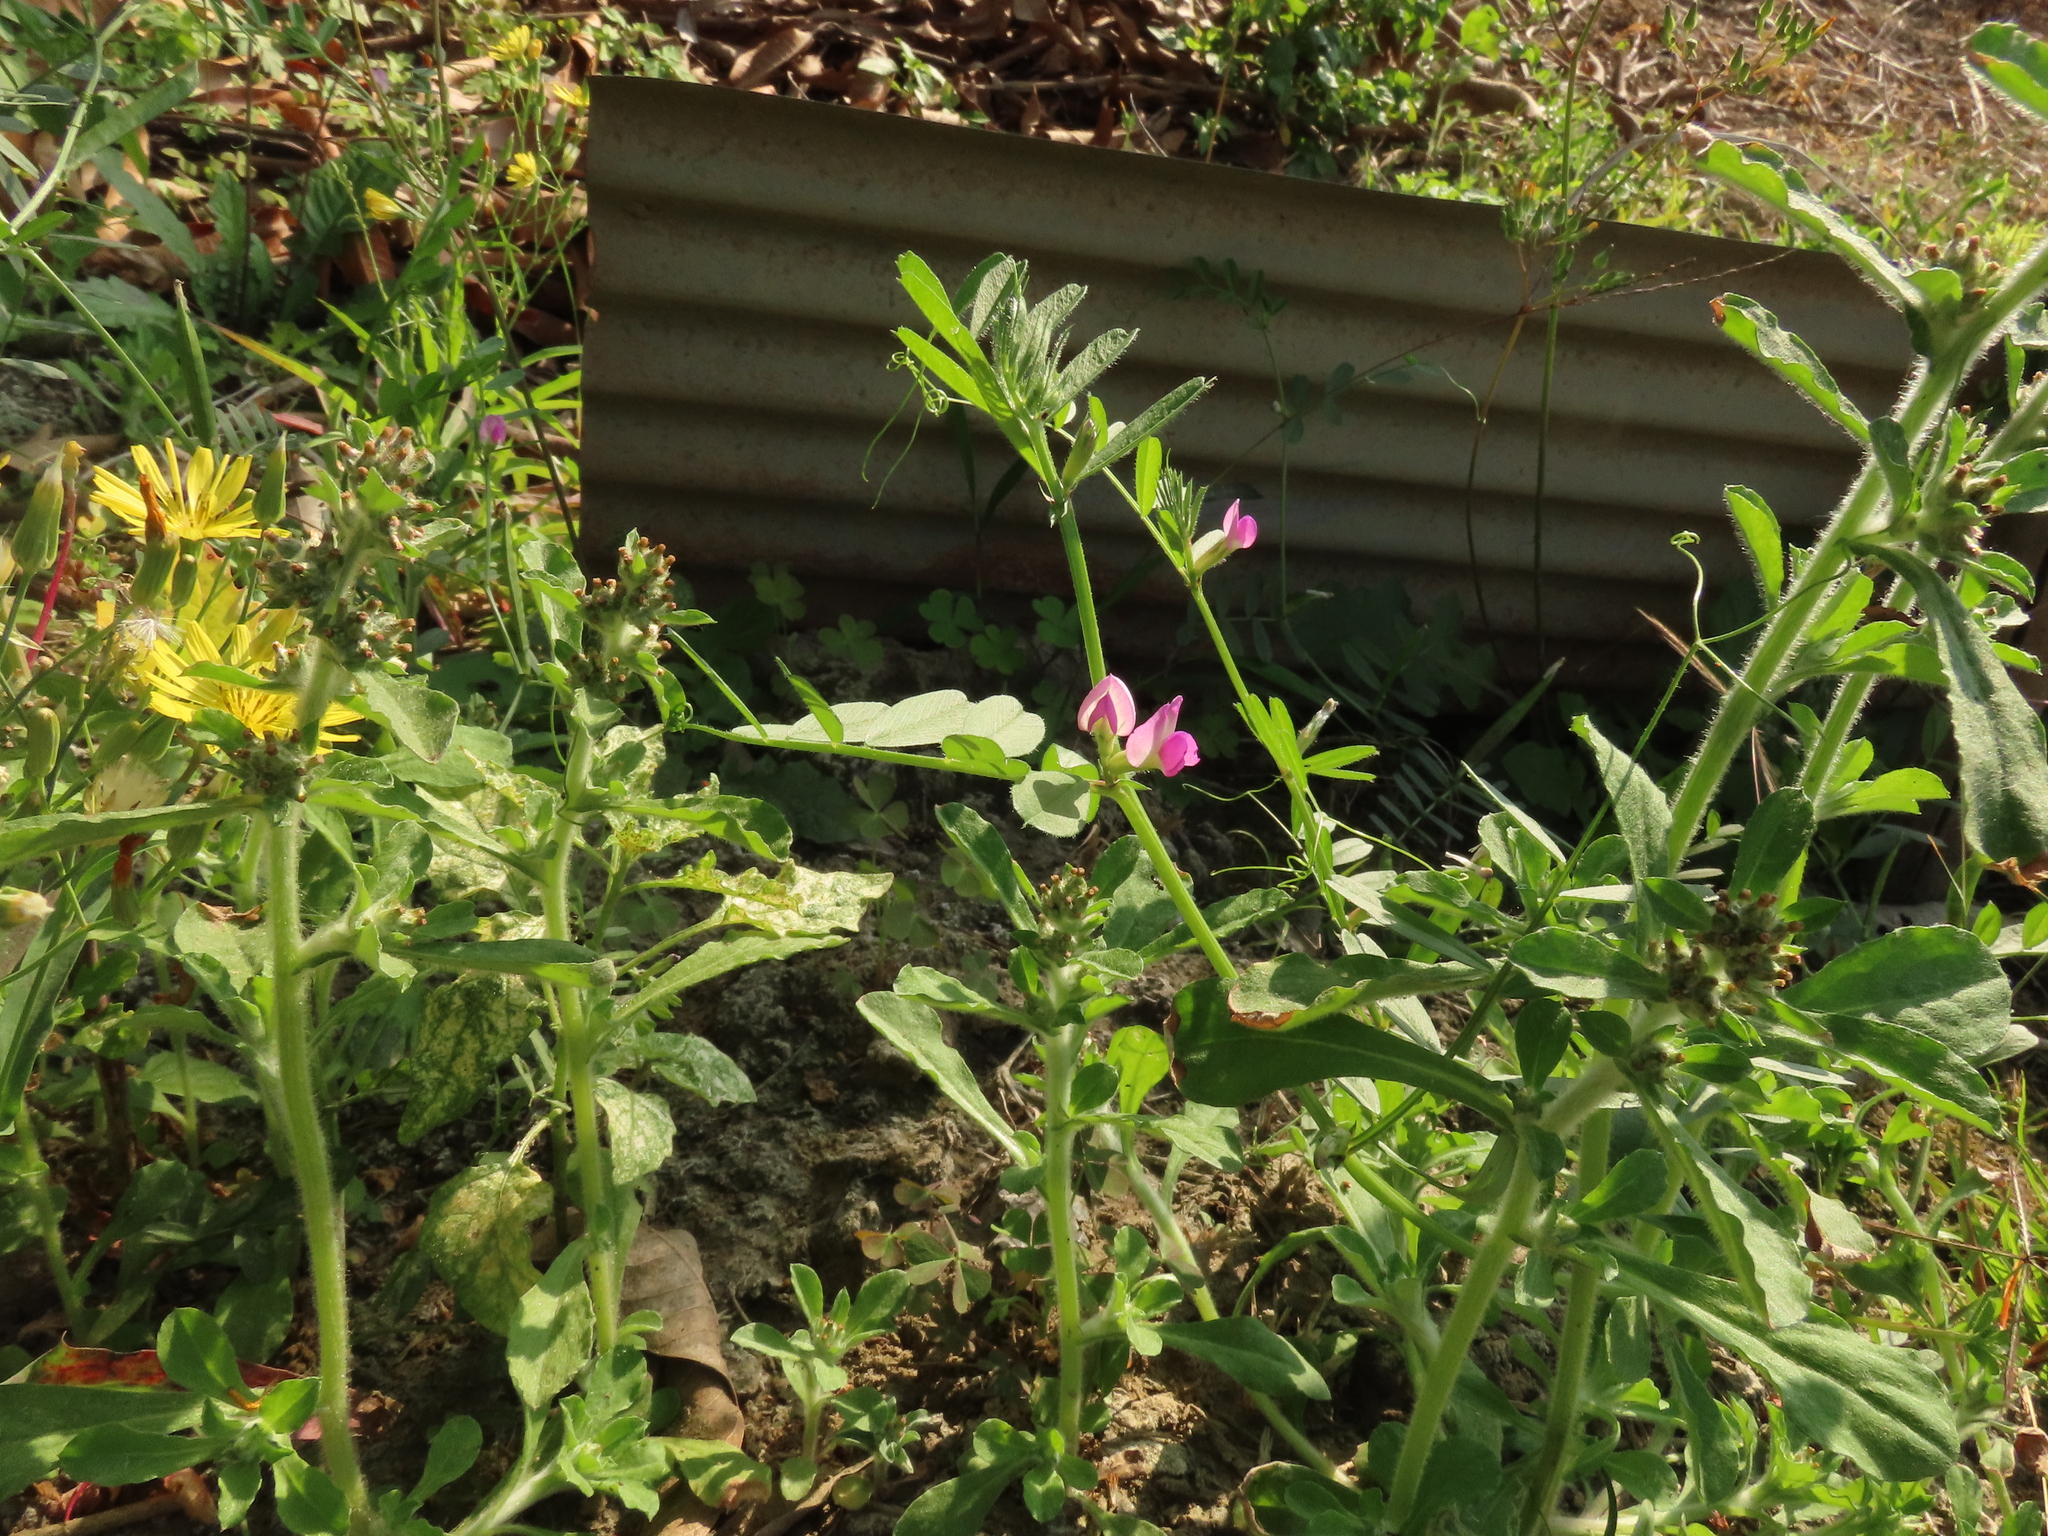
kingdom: Plantae
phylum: Tracheophyta
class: Magnoliopsida
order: Fabales
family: Fabaceae
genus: Vicia
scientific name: Vicia sativa
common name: Garden vetch
